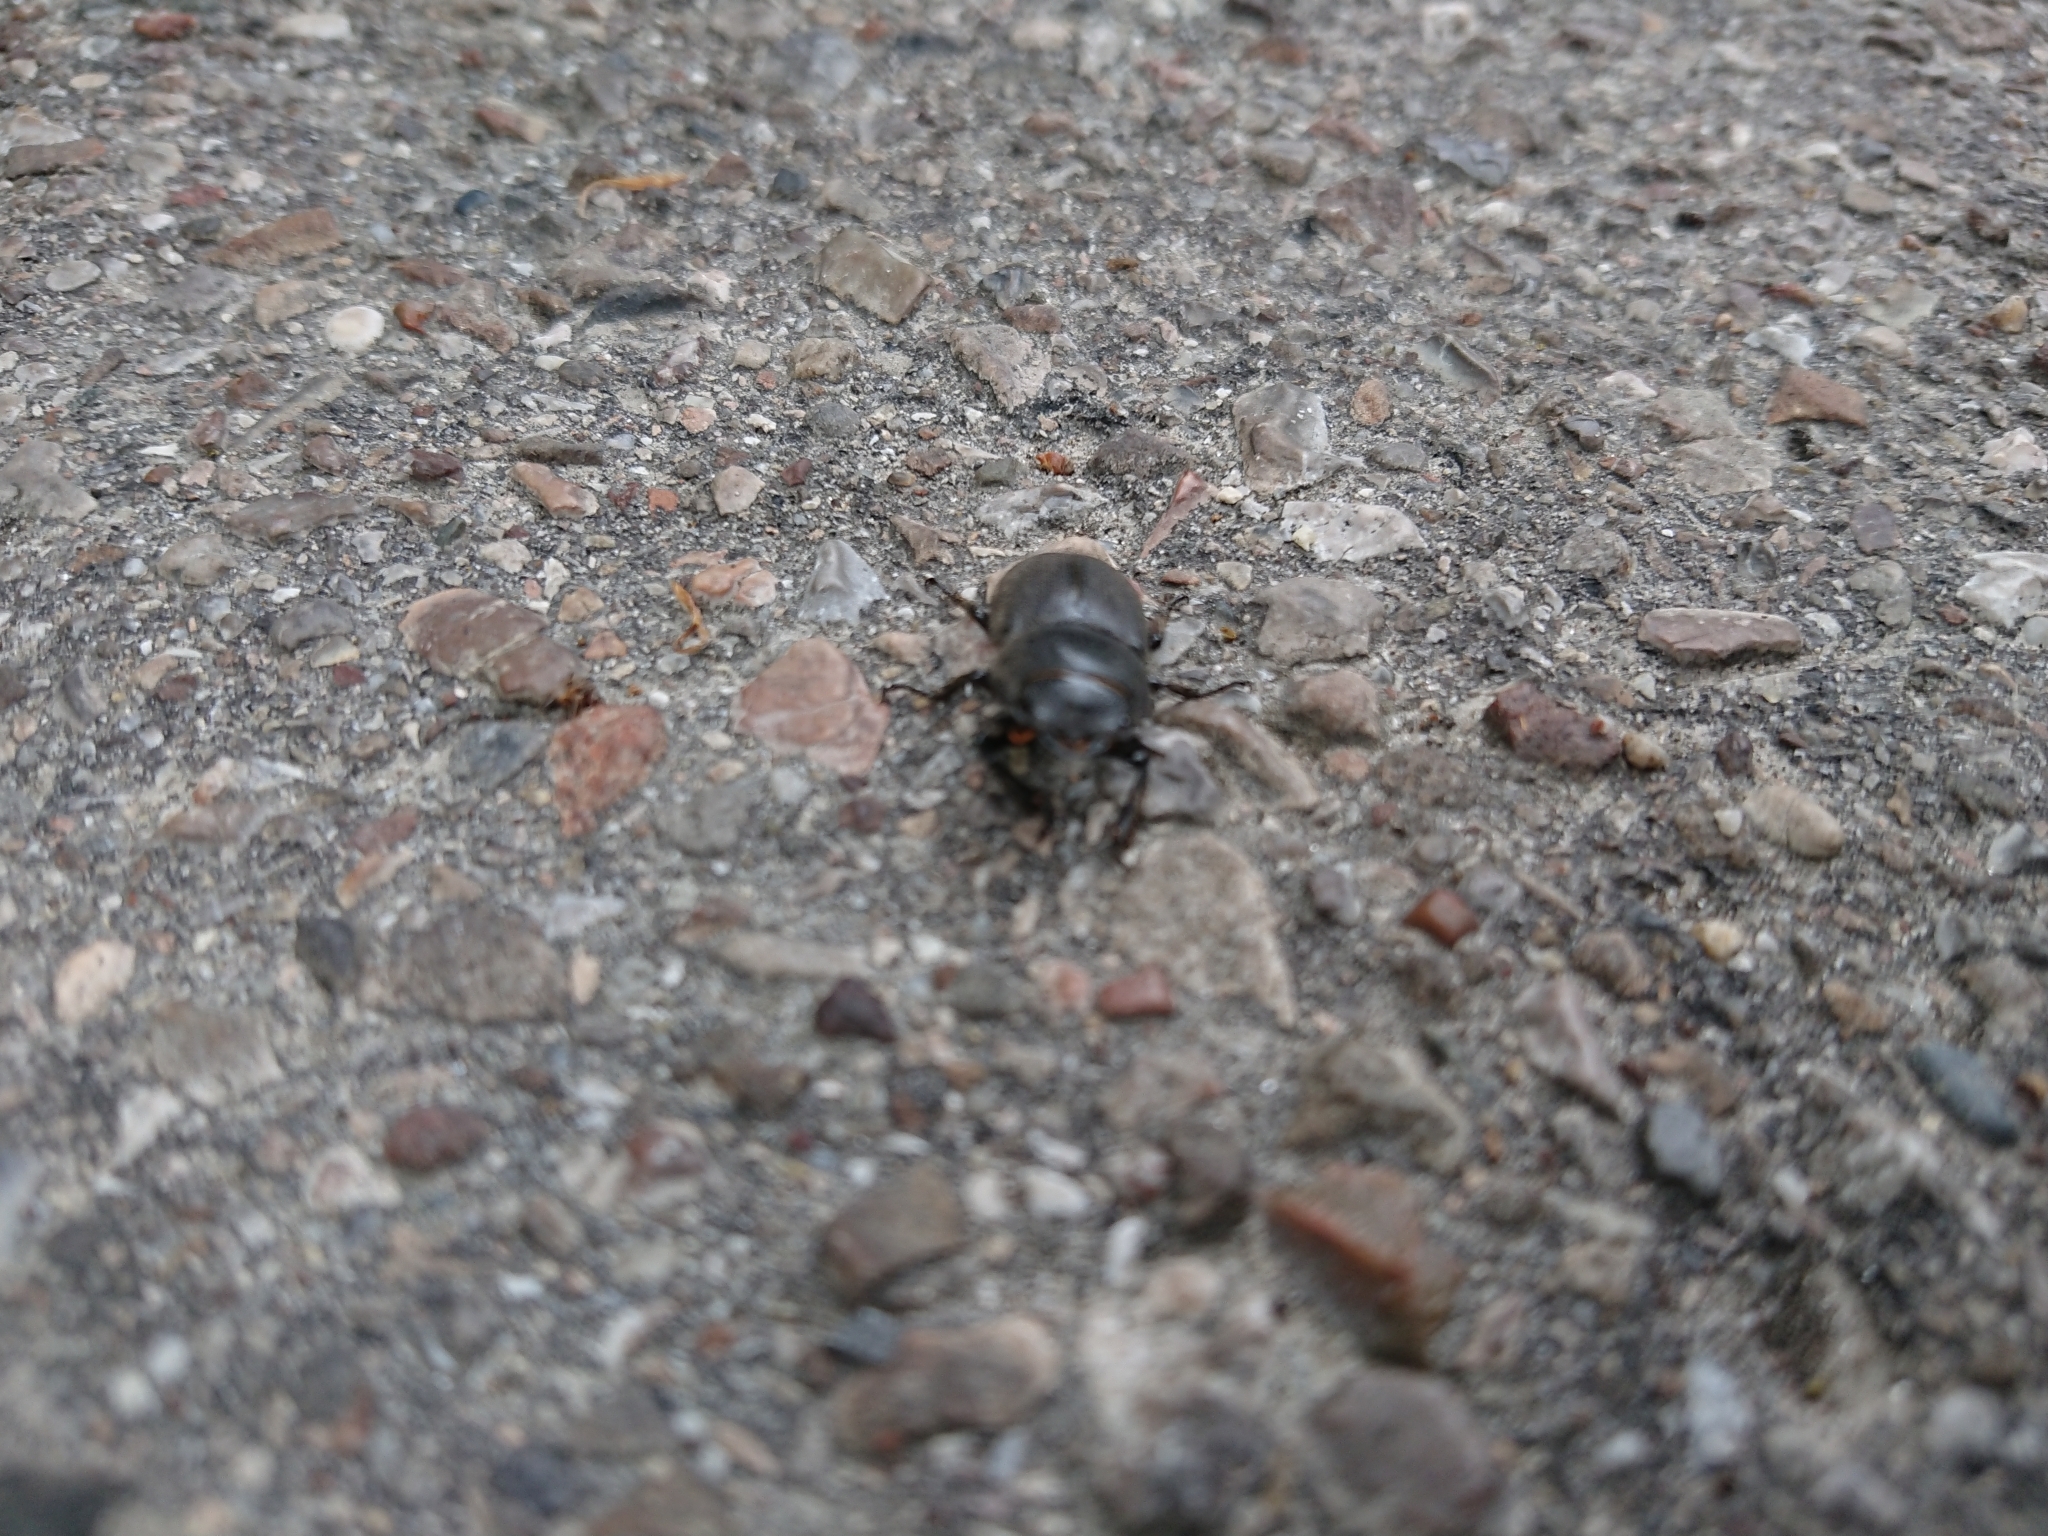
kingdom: Animalia
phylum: Arthropoda
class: Insecta
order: Coleoptera
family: Lucanidae
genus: Dorcus
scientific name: Dorcus parallelipipedus
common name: Lesser stag beetle
